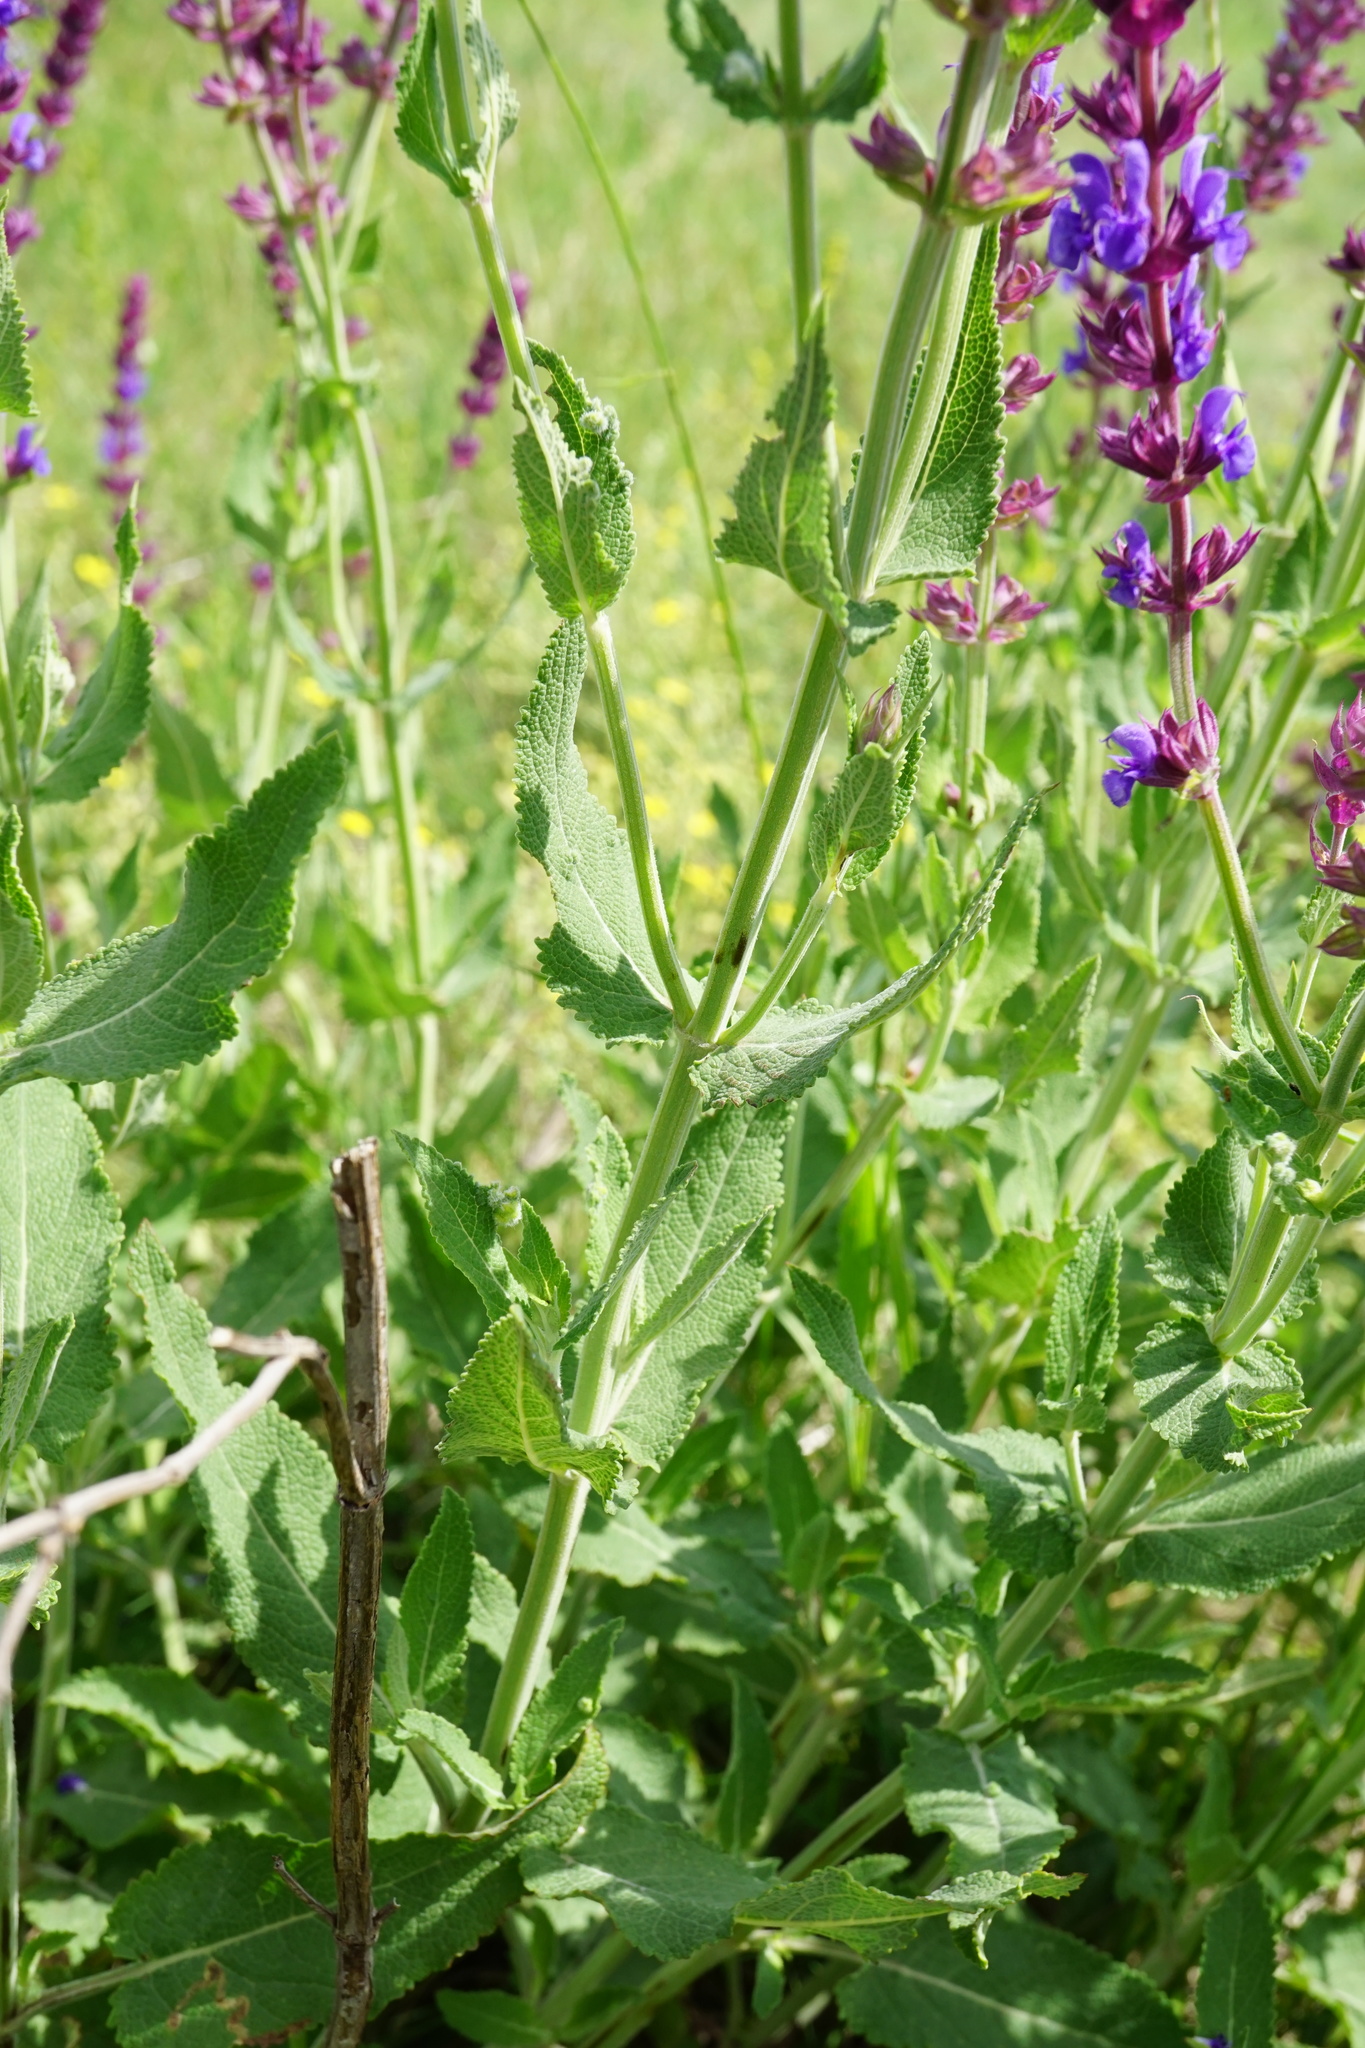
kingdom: Plantae
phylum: Tracheophyta
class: Magnoliopsida
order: Lamiales
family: Lamiaceae
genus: Salvia
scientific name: Salvia nemorosa
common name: Balkan clary
